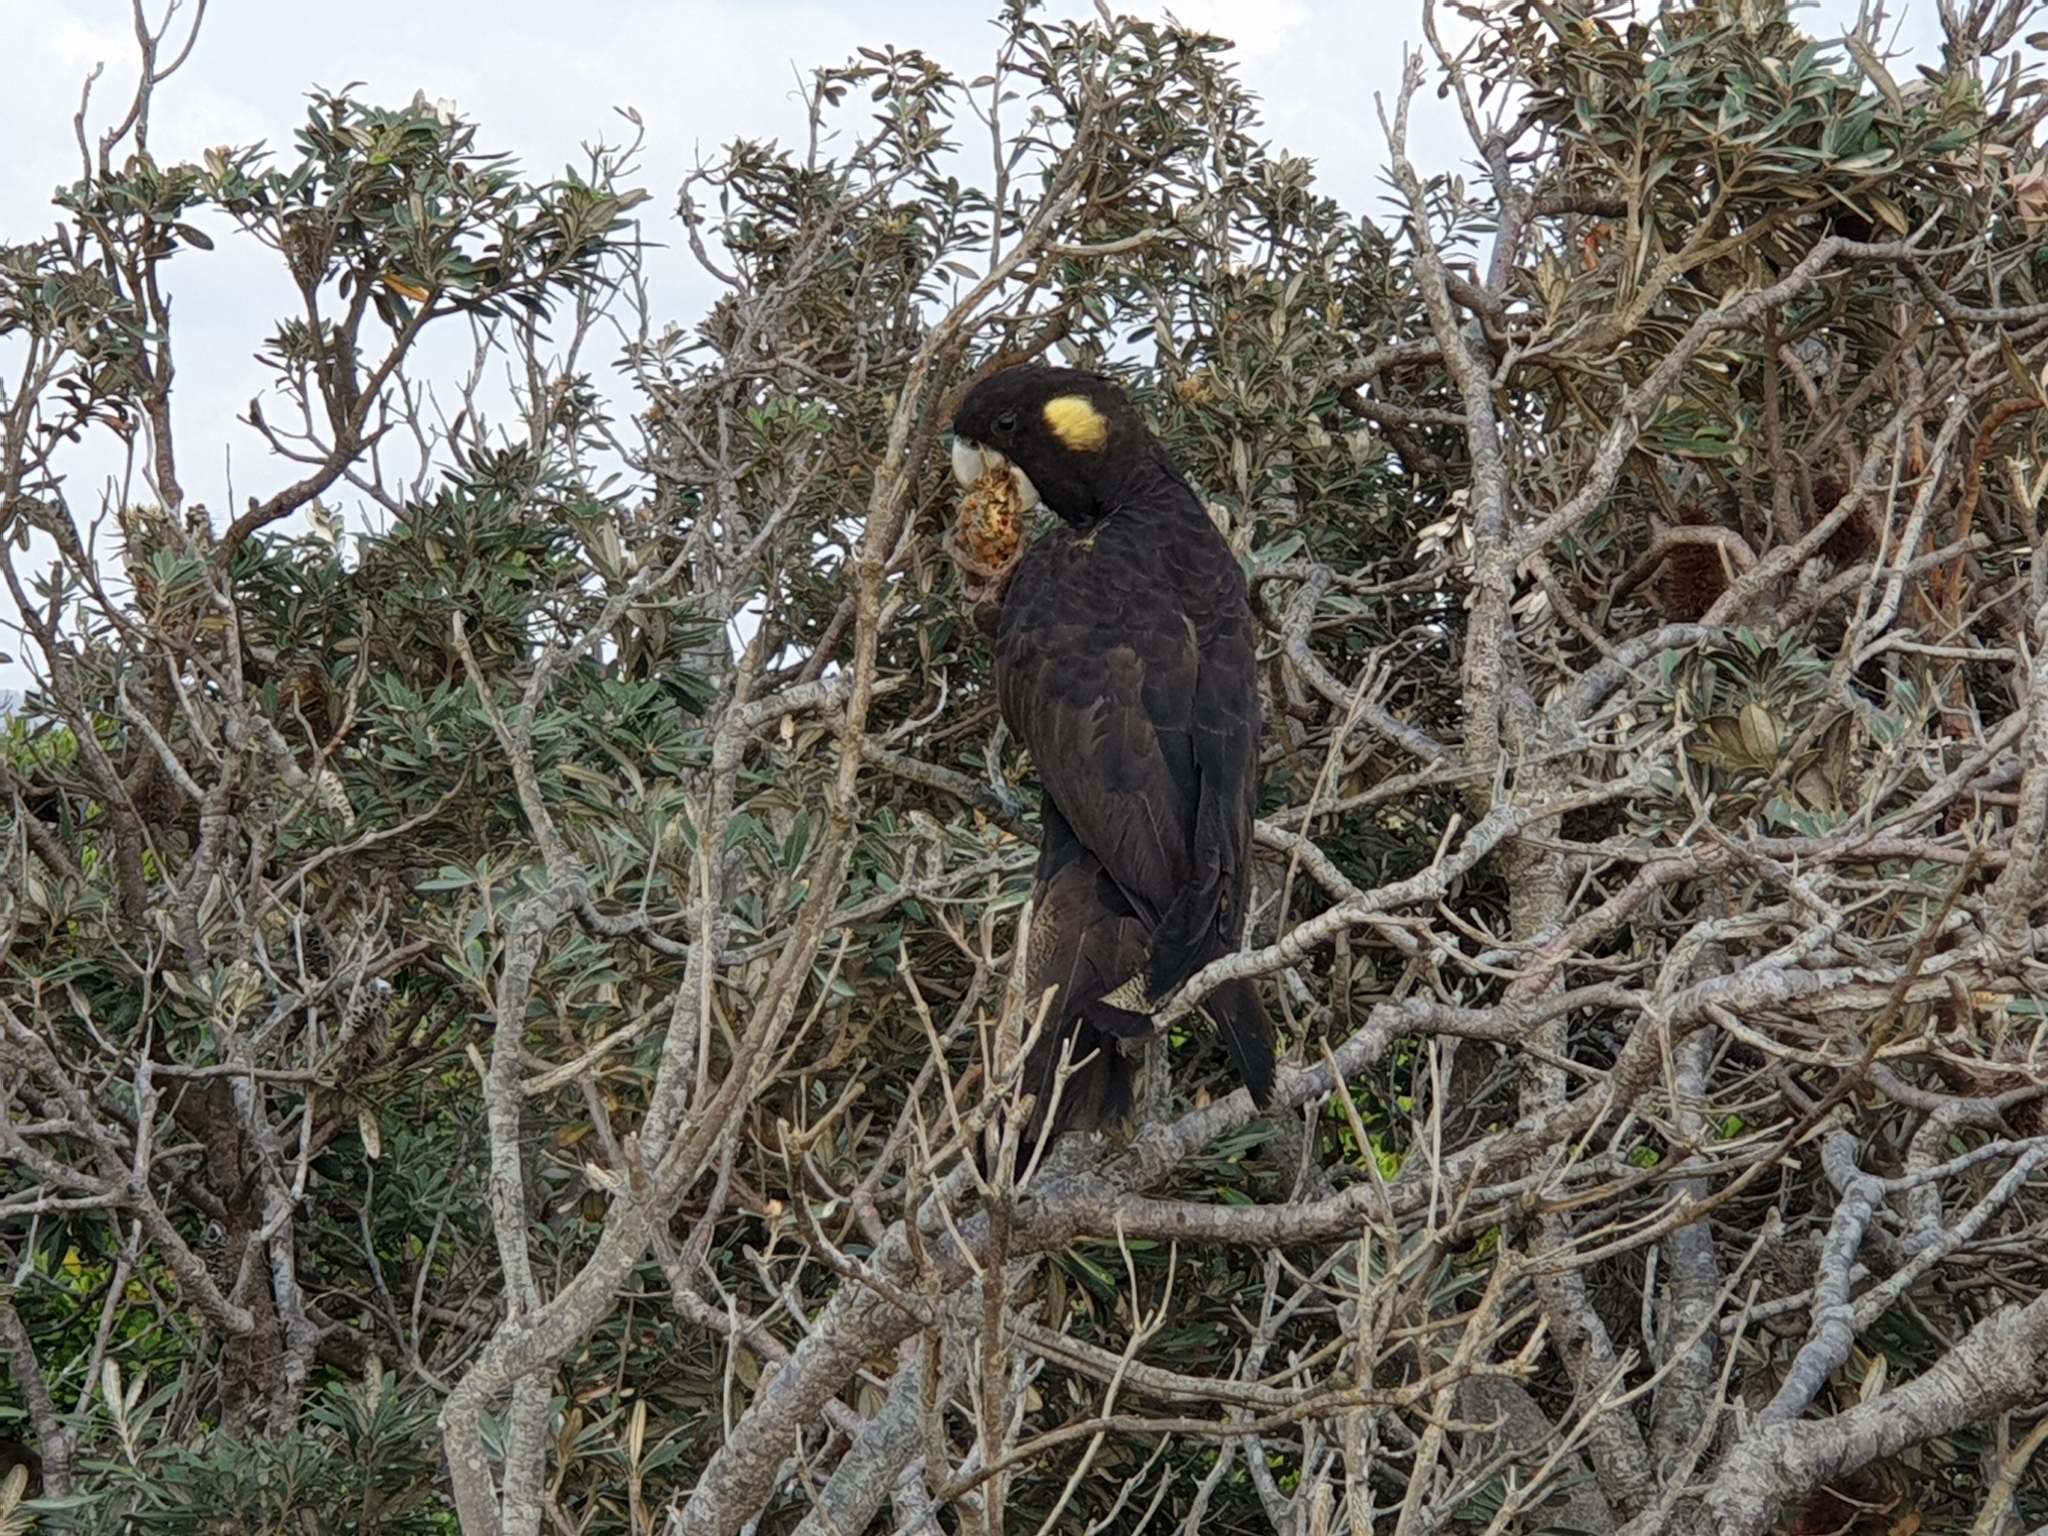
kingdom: Animalia
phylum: Chordata
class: Aves
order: Psittaciformes
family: Cacatuidae
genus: Zanda
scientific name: Zanda funerea
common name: Yellow-tailed black-cockatoo
